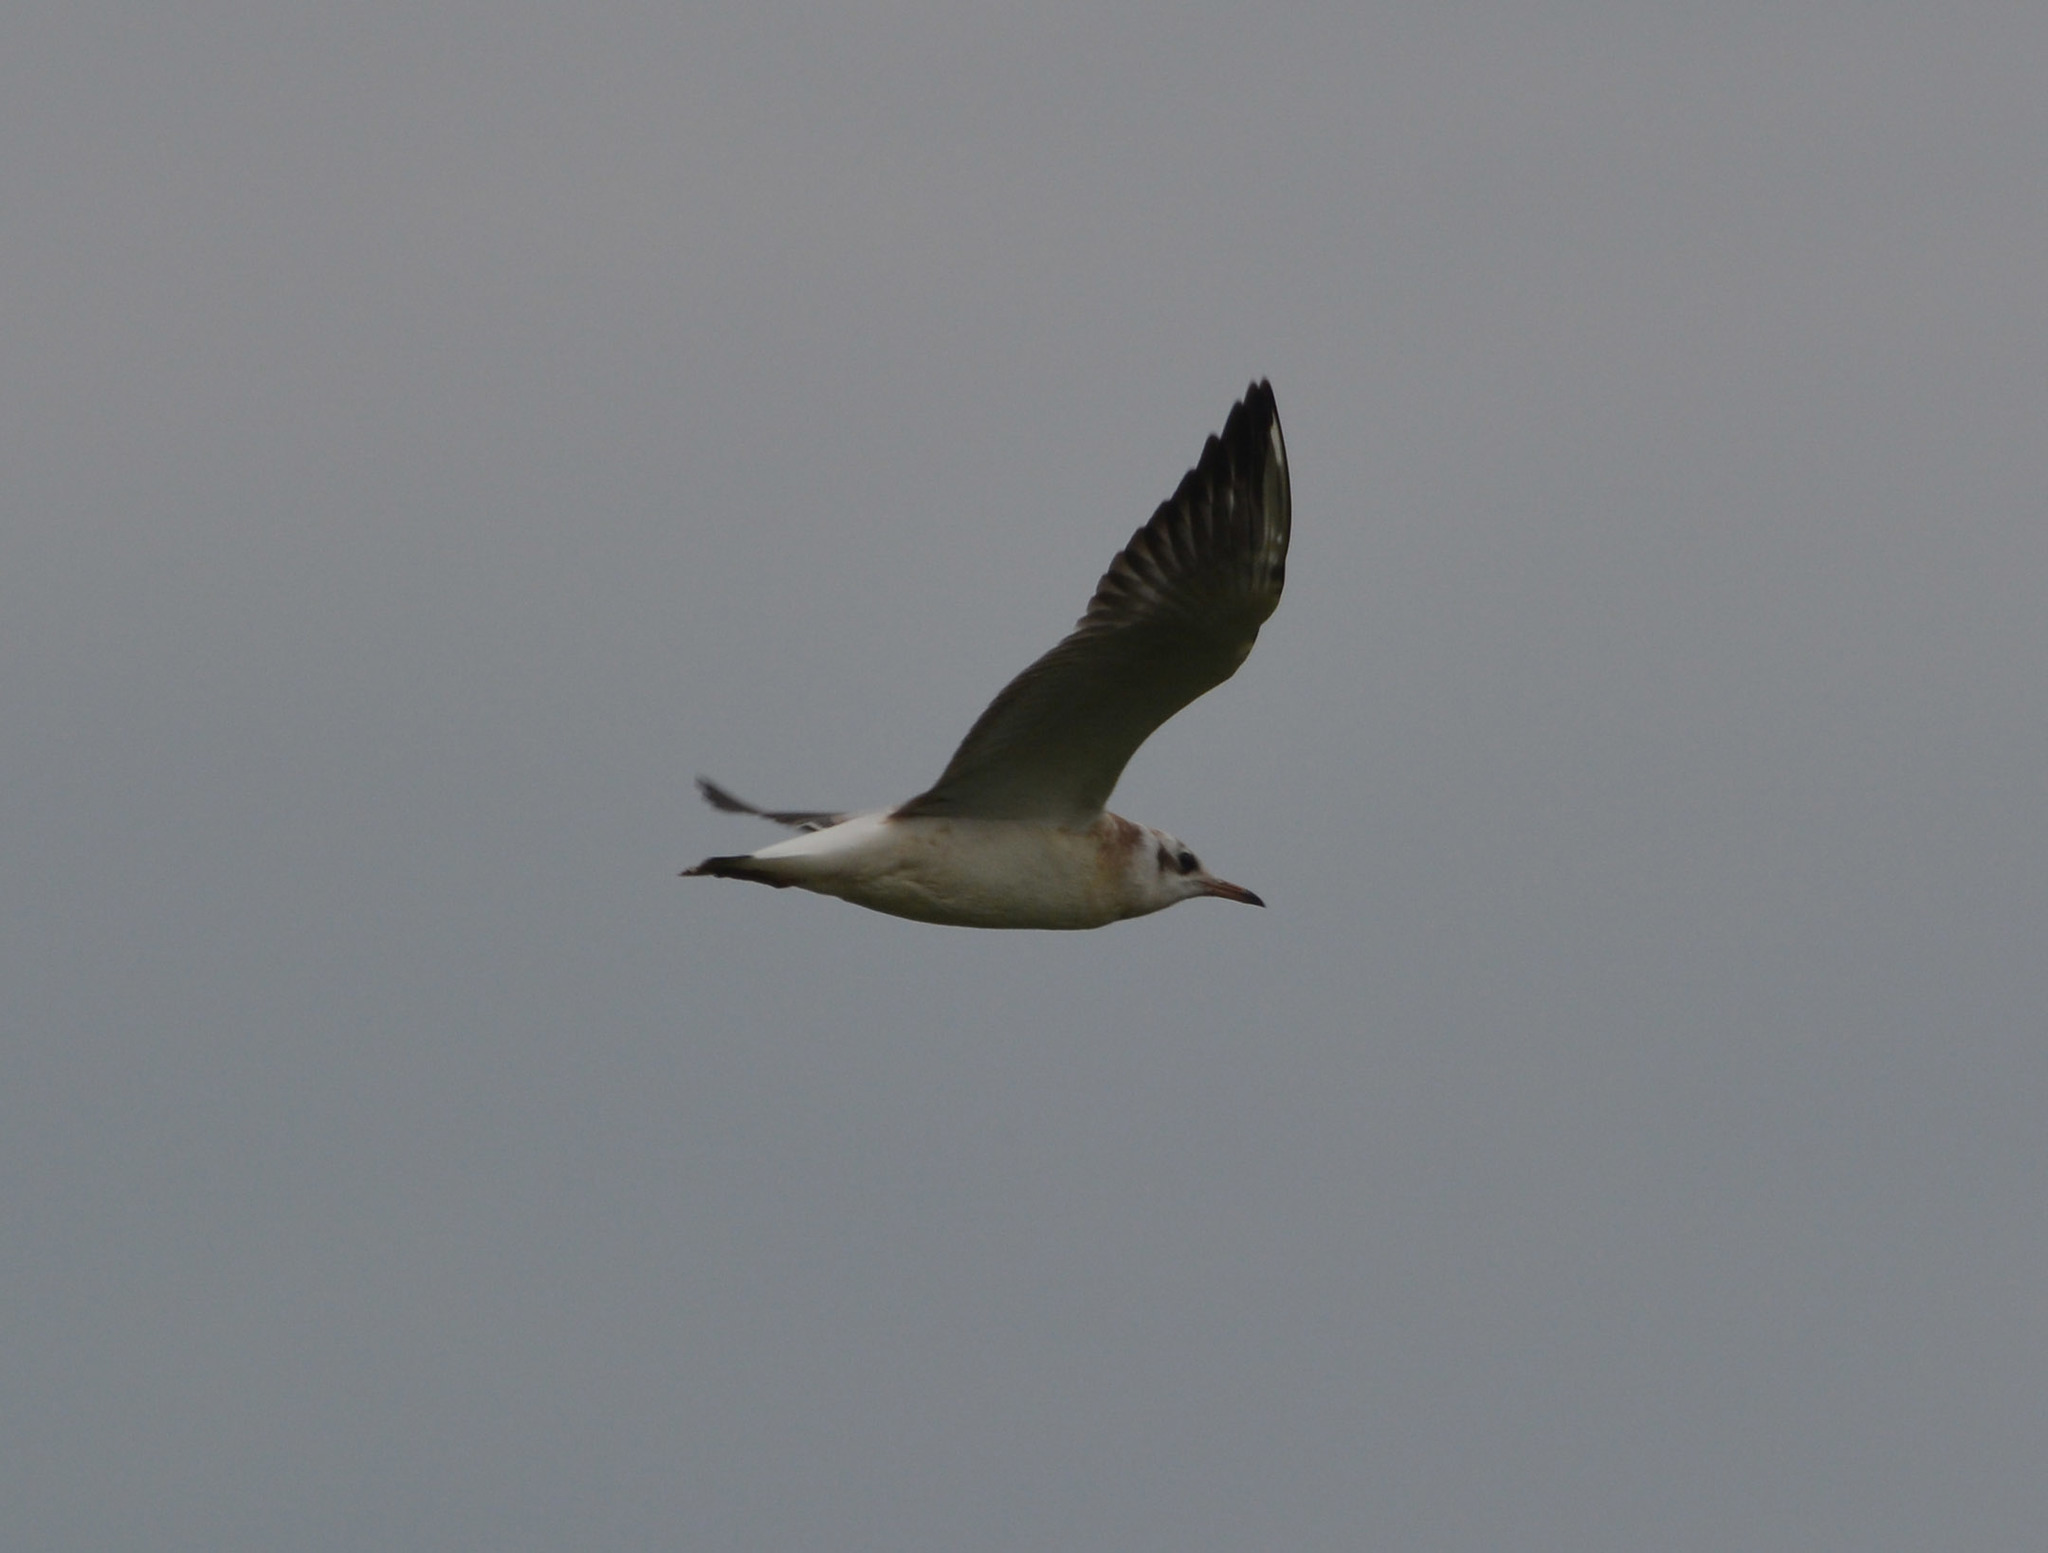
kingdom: Animalia
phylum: Chordata
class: Aves
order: Charadriiformes
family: Laridae
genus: Chroicocephalus
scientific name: Chroicocephalus ridibundus
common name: Black-headed gull
